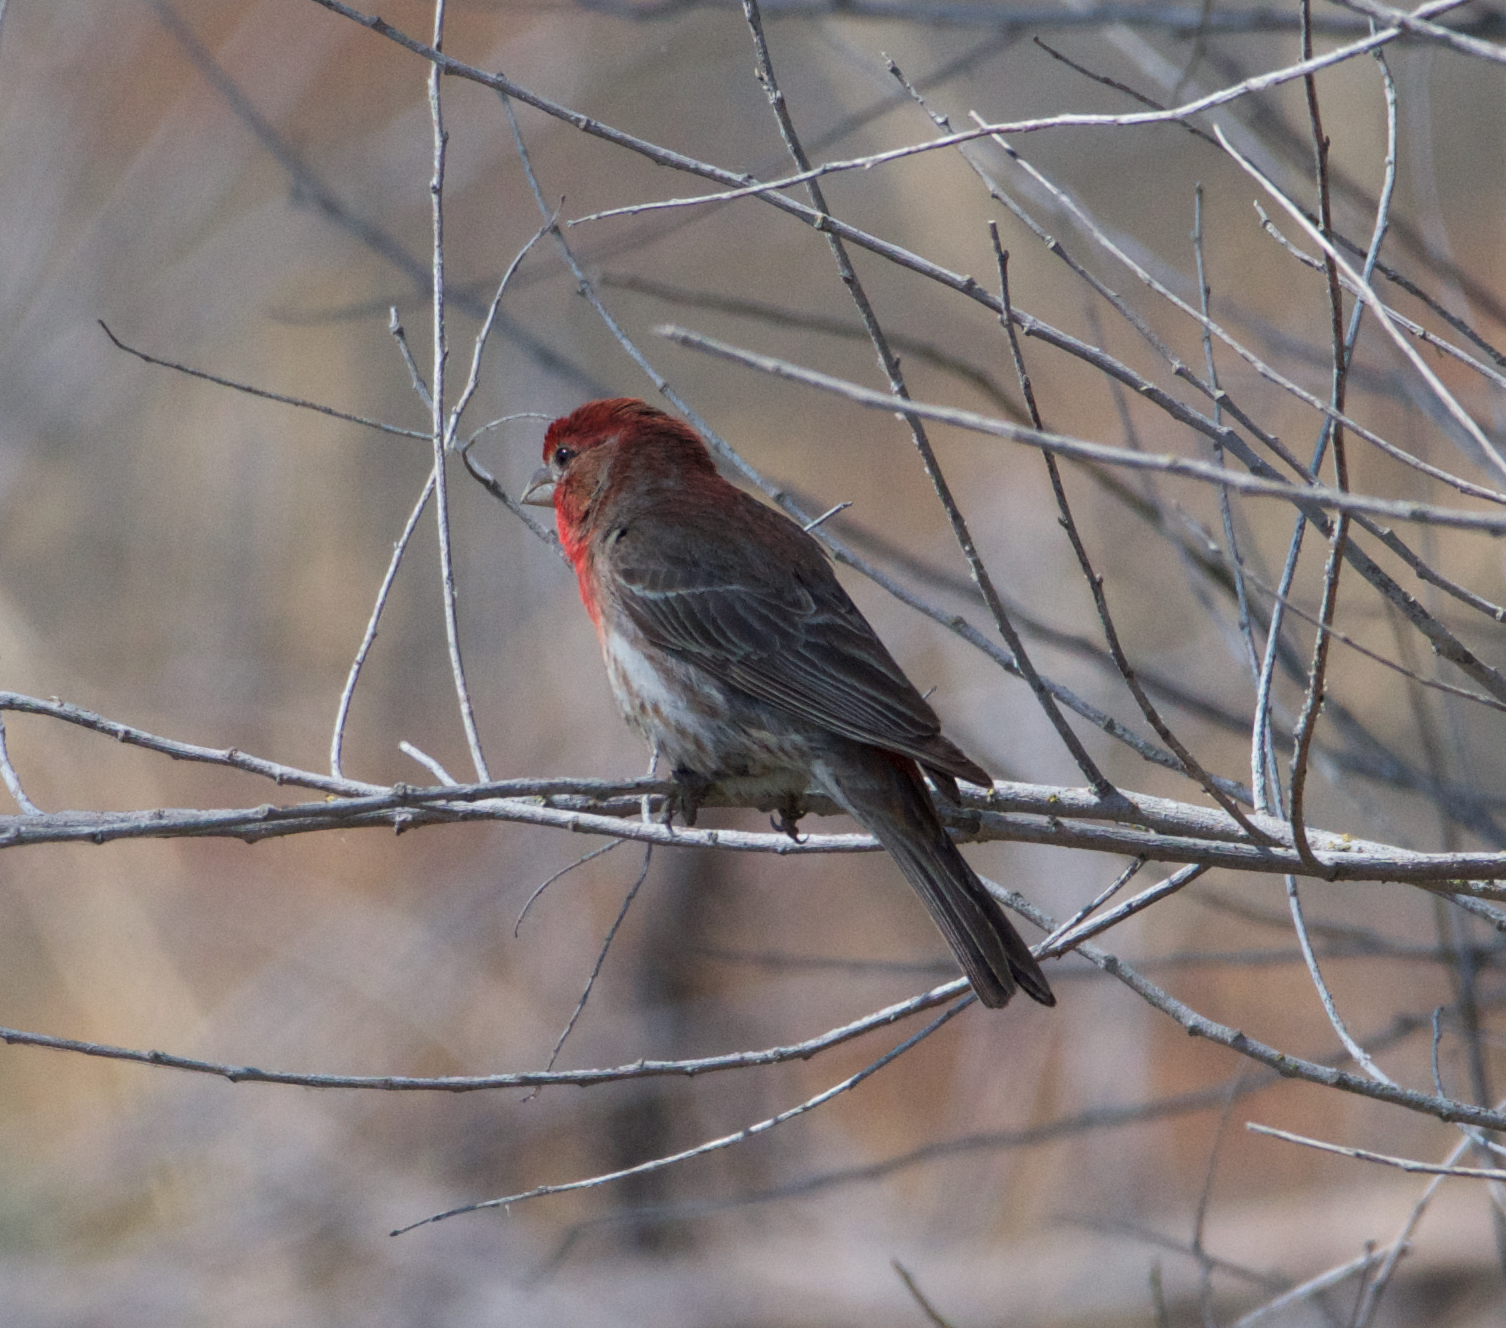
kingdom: Animalia
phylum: Chordata
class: Aves
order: Passeriformes
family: Fringillidae
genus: Haemorhous
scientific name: Haemorhous mexicanus
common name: House finch
